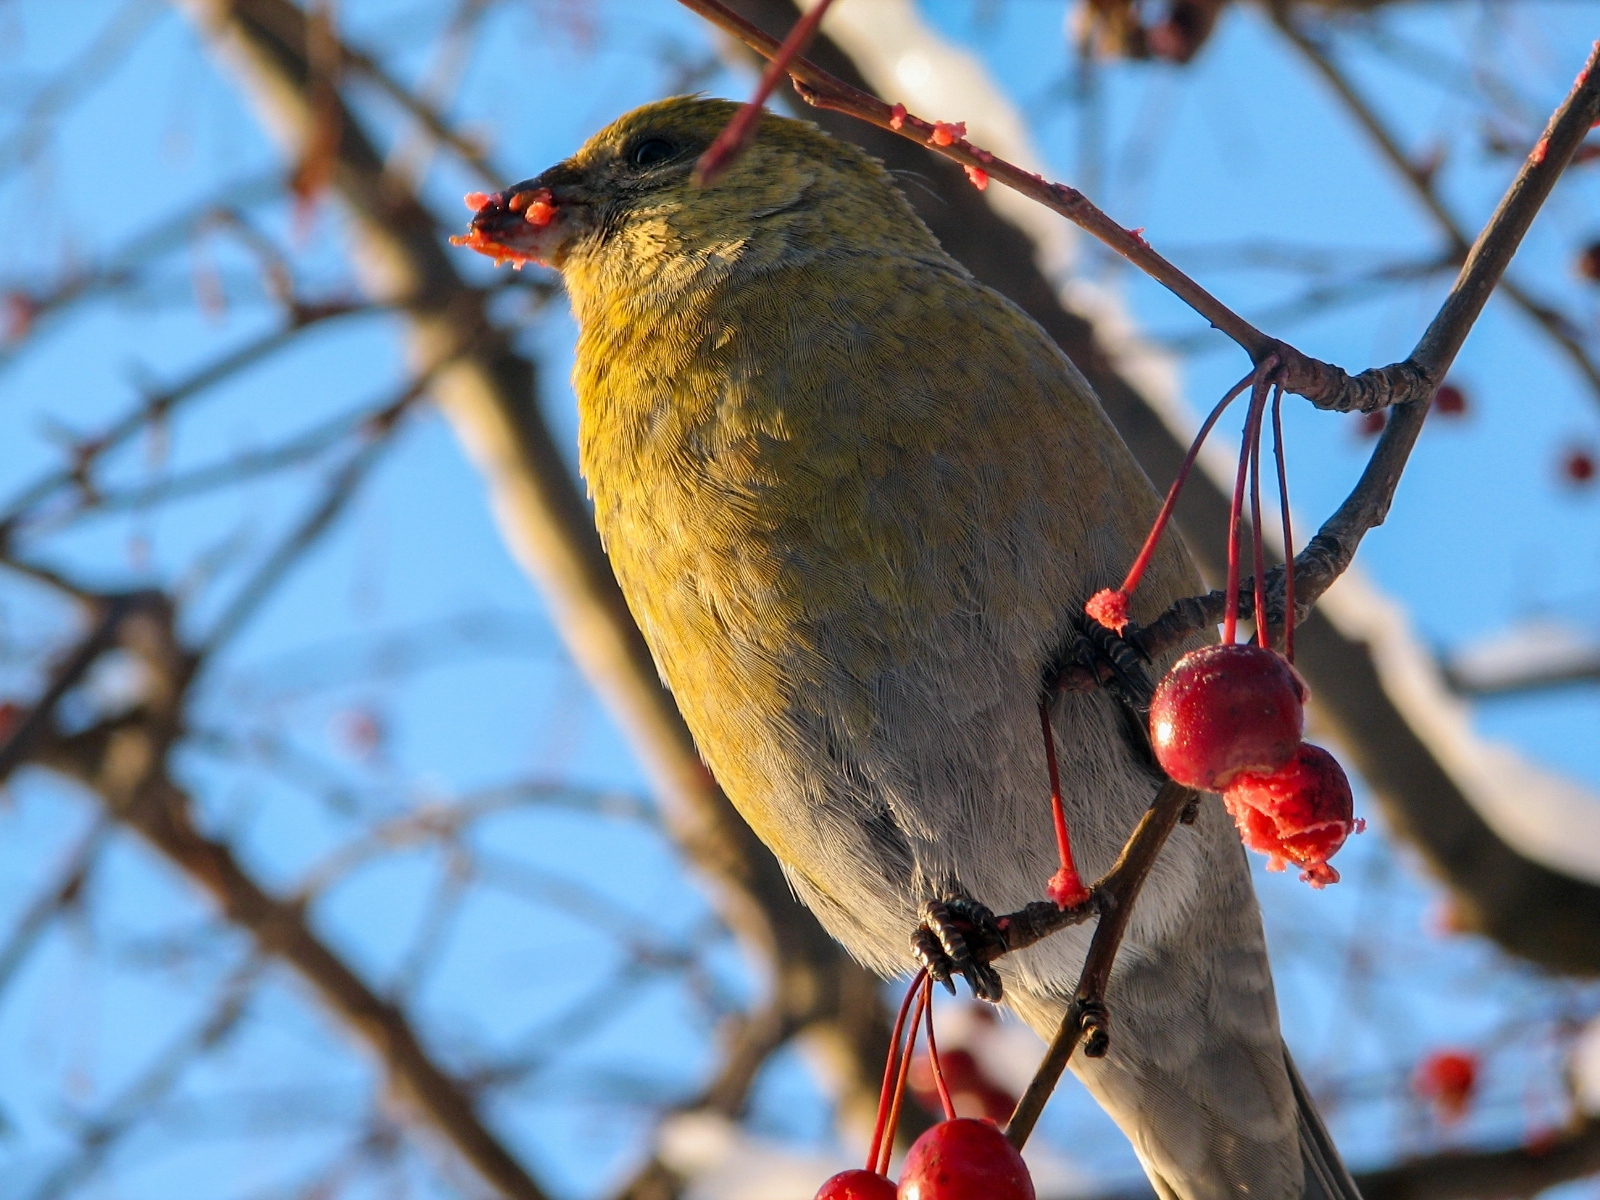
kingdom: Animalia
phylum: Chordata
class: Aves
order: Passeriformes
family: Fringillidae
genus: Pinicola
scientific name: Pinicola enucleator
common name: Pine grosbeak
